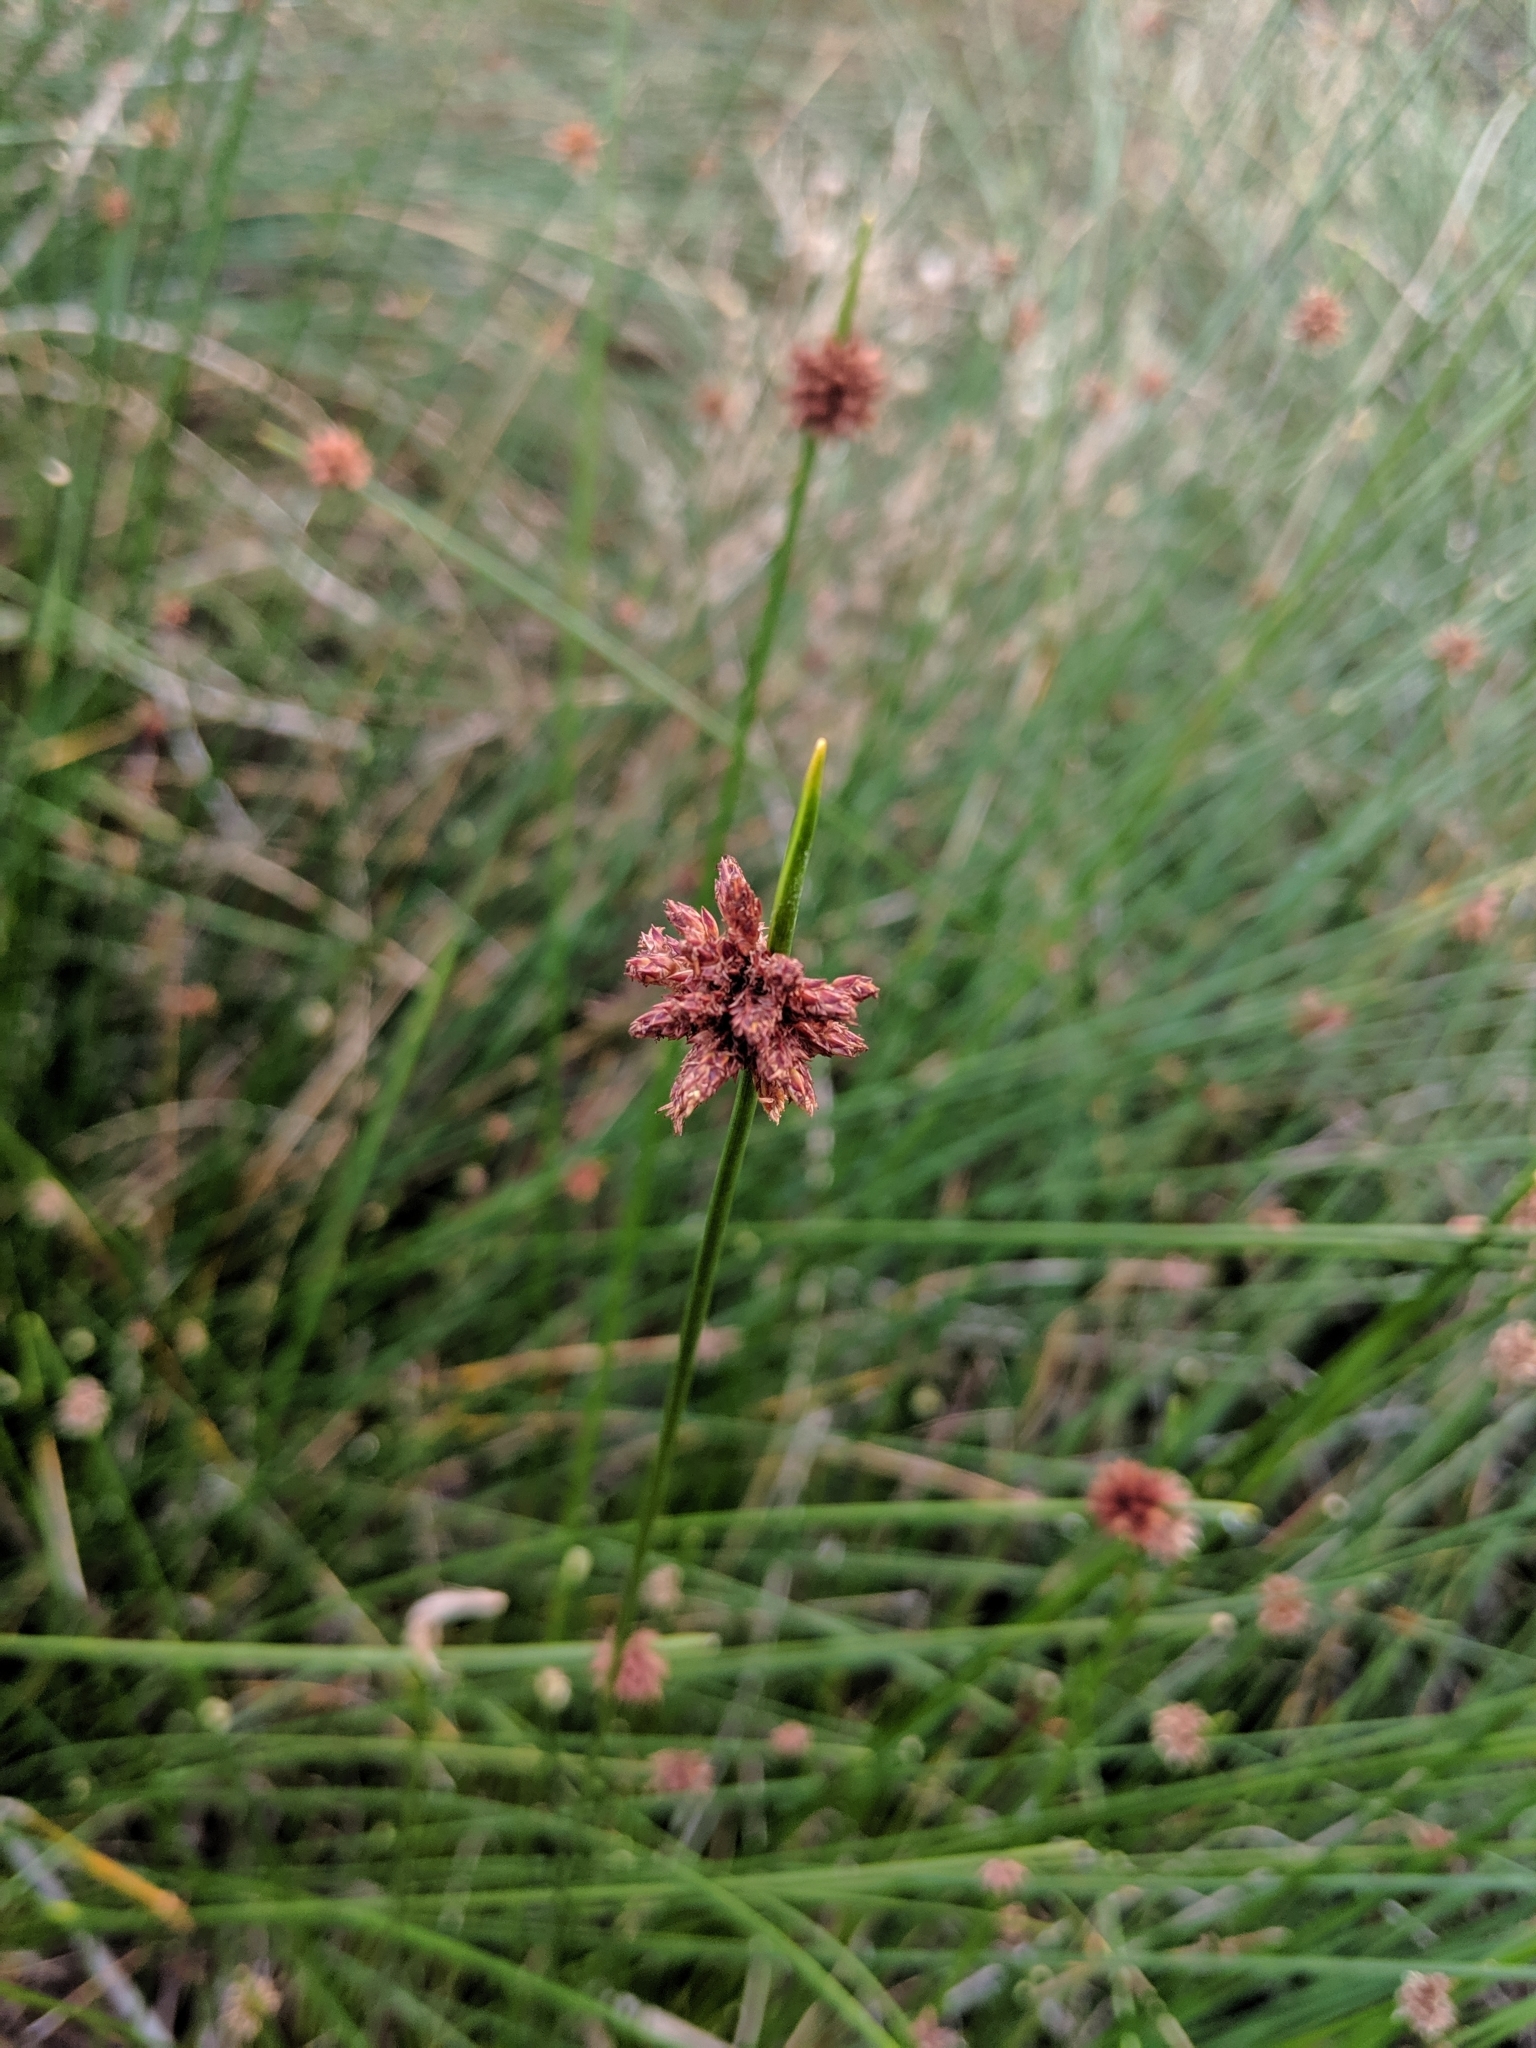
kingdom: Plantae
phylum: Tracheophyta
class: Liliopsida
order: Poales
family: Cyperaceae
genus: Ficinia
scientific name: Ficinia nodosa
